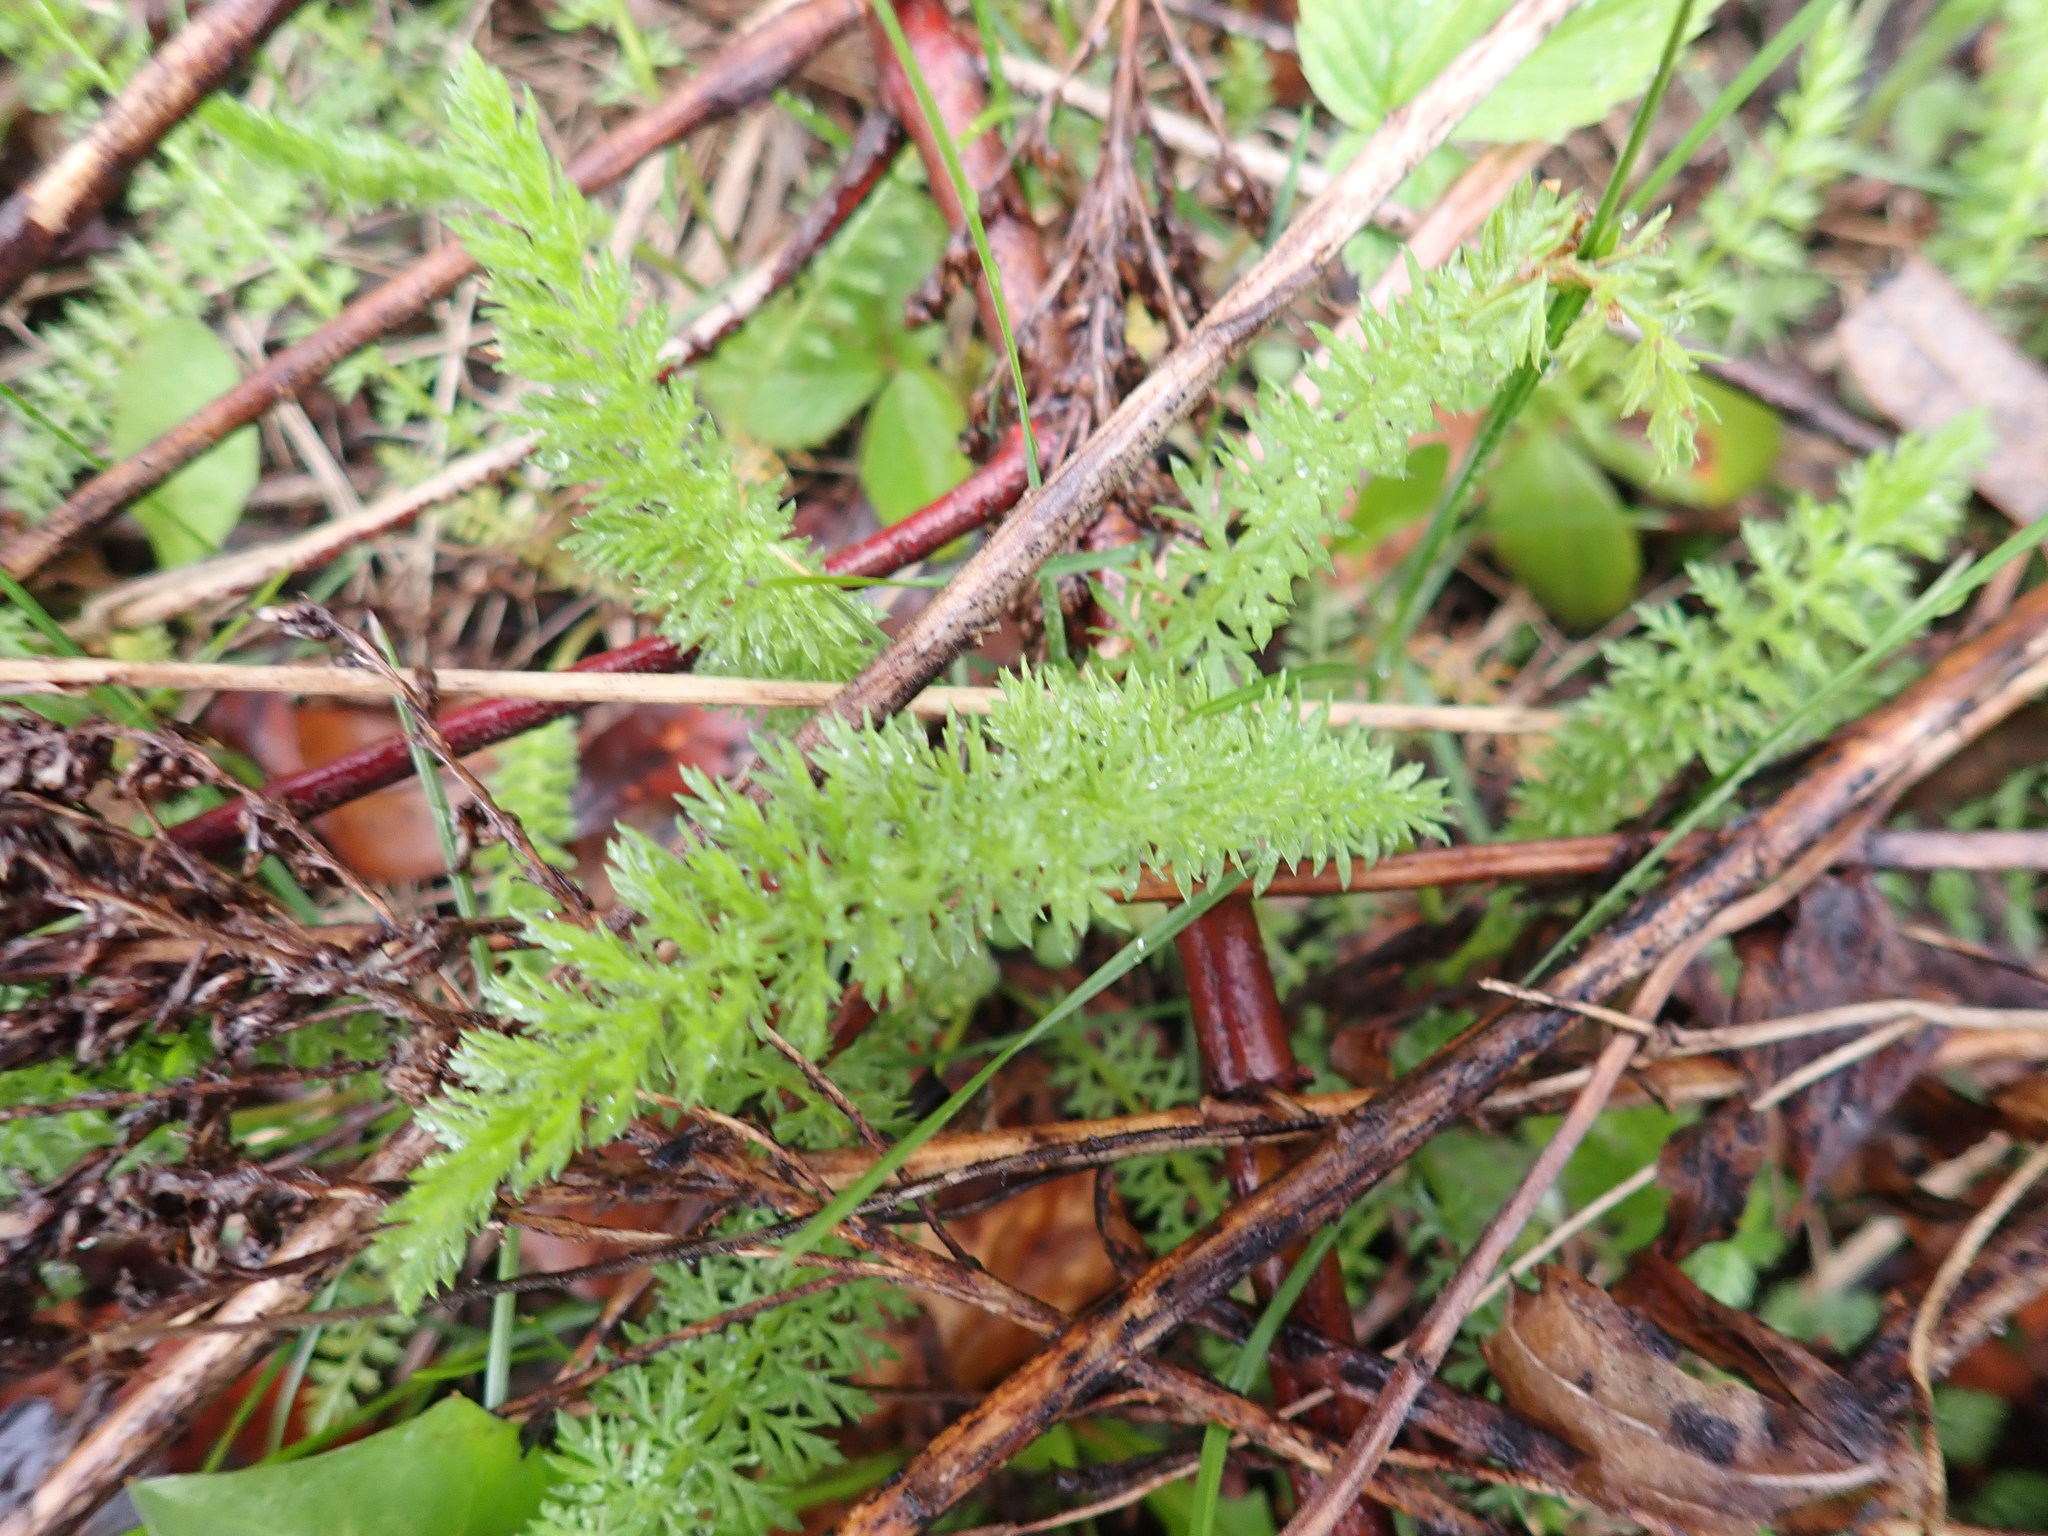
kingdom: Plantae
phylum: Tracheophyta
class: Magnoliopsida
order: Asterales
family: Asteraceae
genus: Achillea
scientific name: Achillea millefolium
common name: Yarrow
